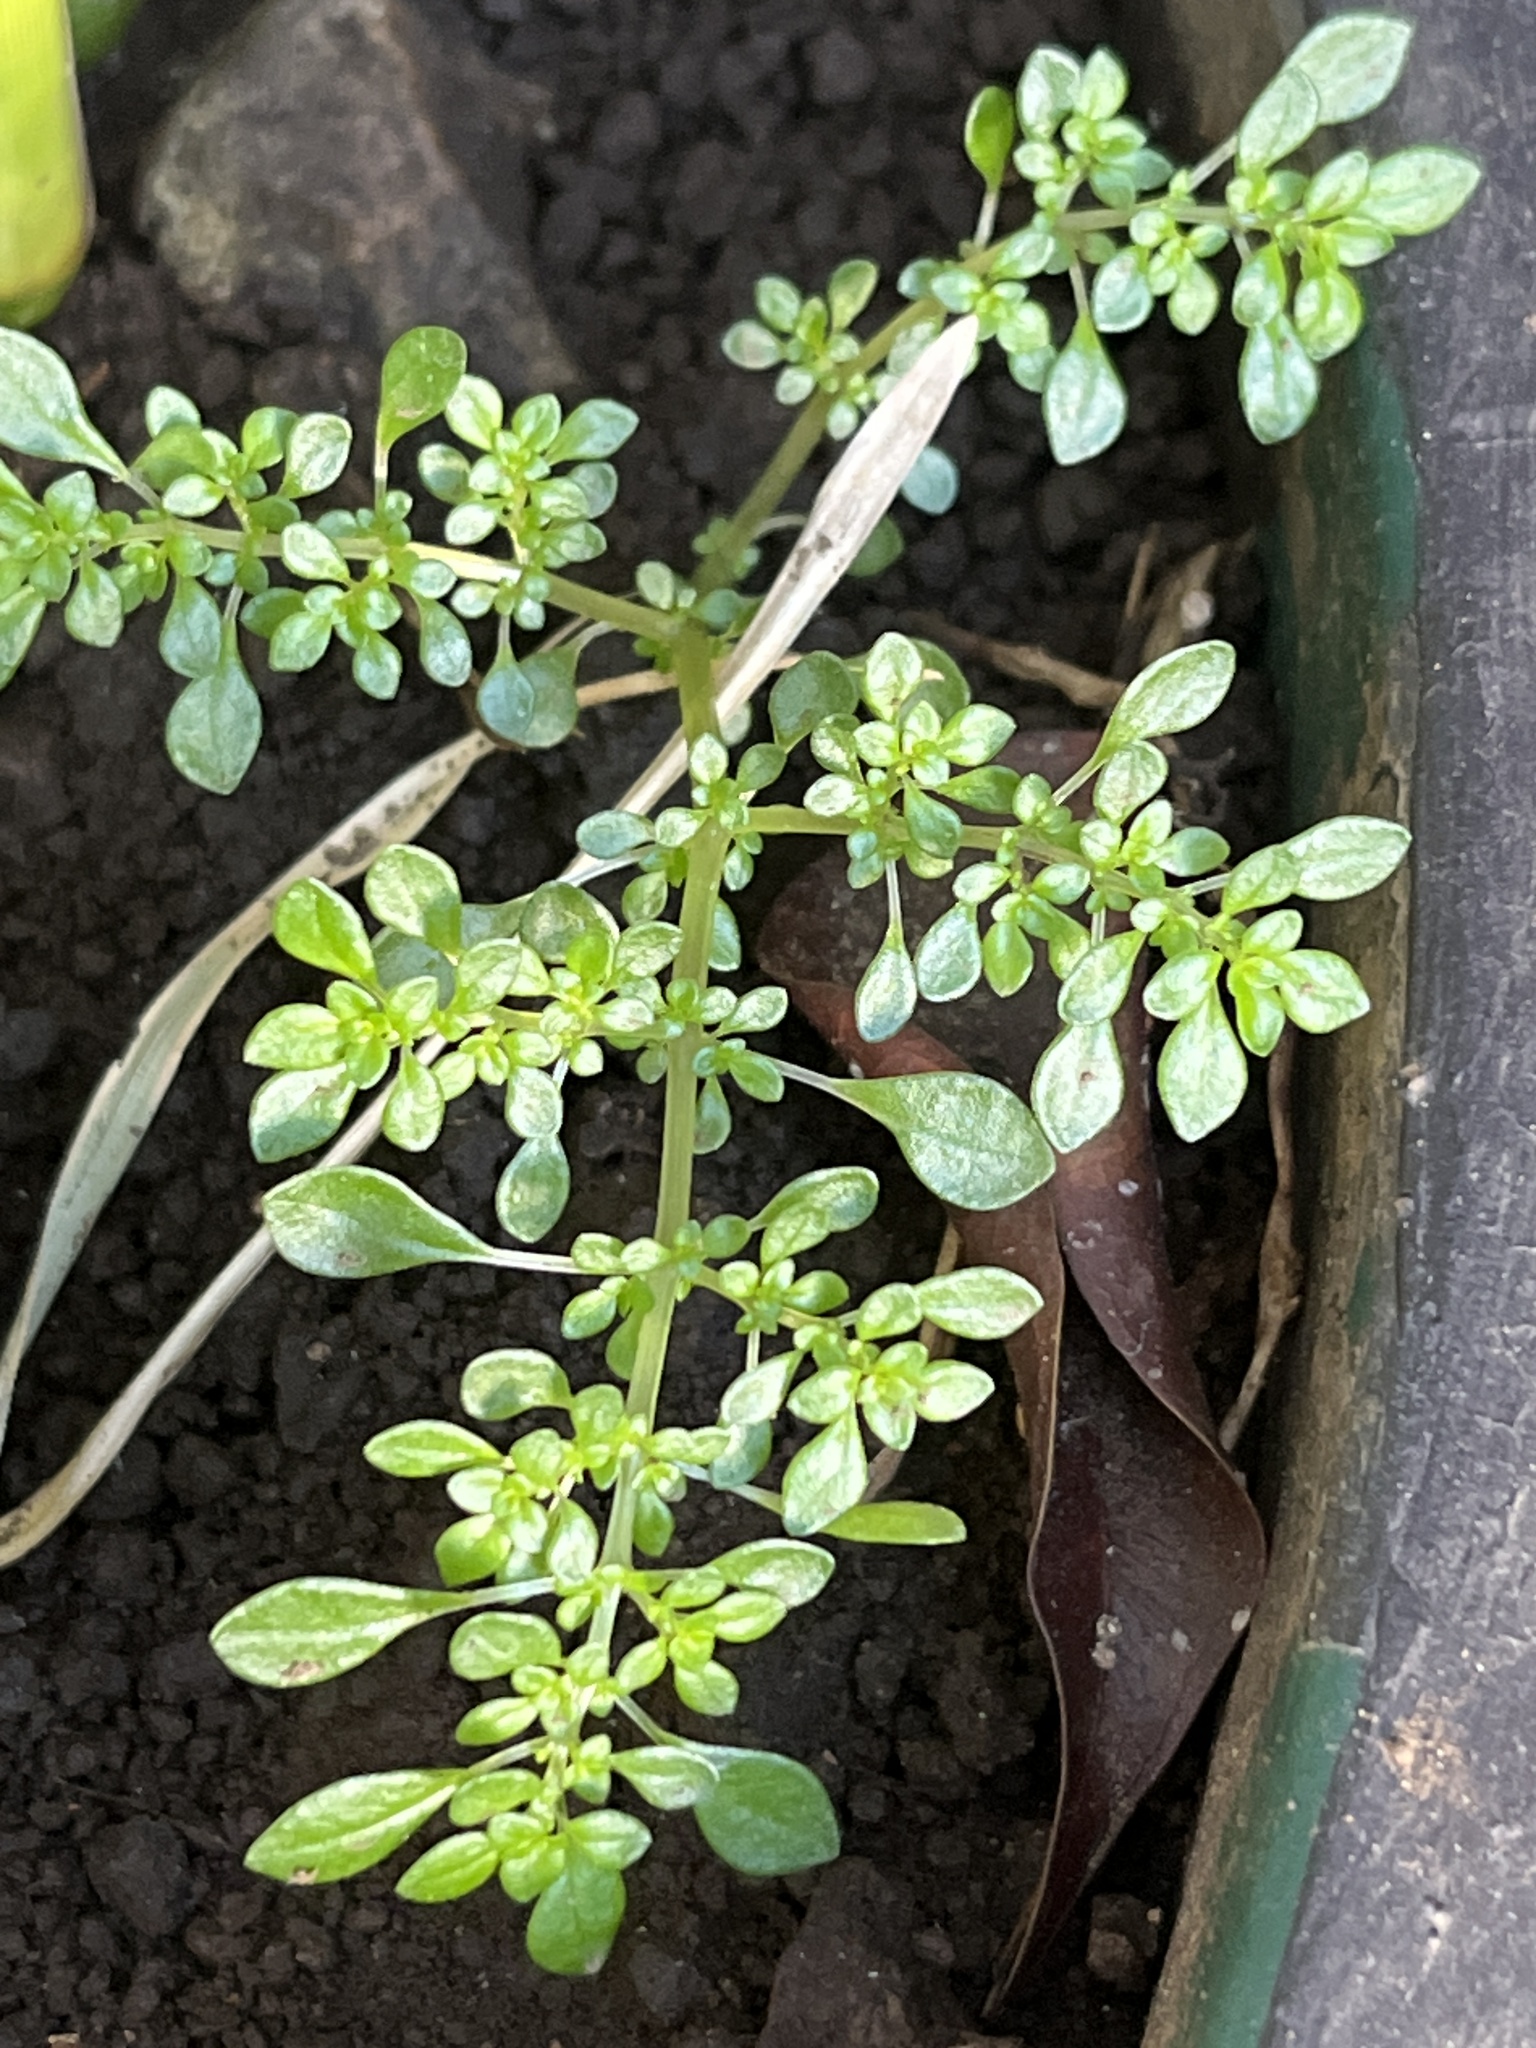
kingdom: Plantae
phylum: Tracheophyta
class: Magnoliopsida
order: Rosales
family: Urticaceae
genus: Pilea
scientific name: Pilea microphylla
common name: Artillery-plant
